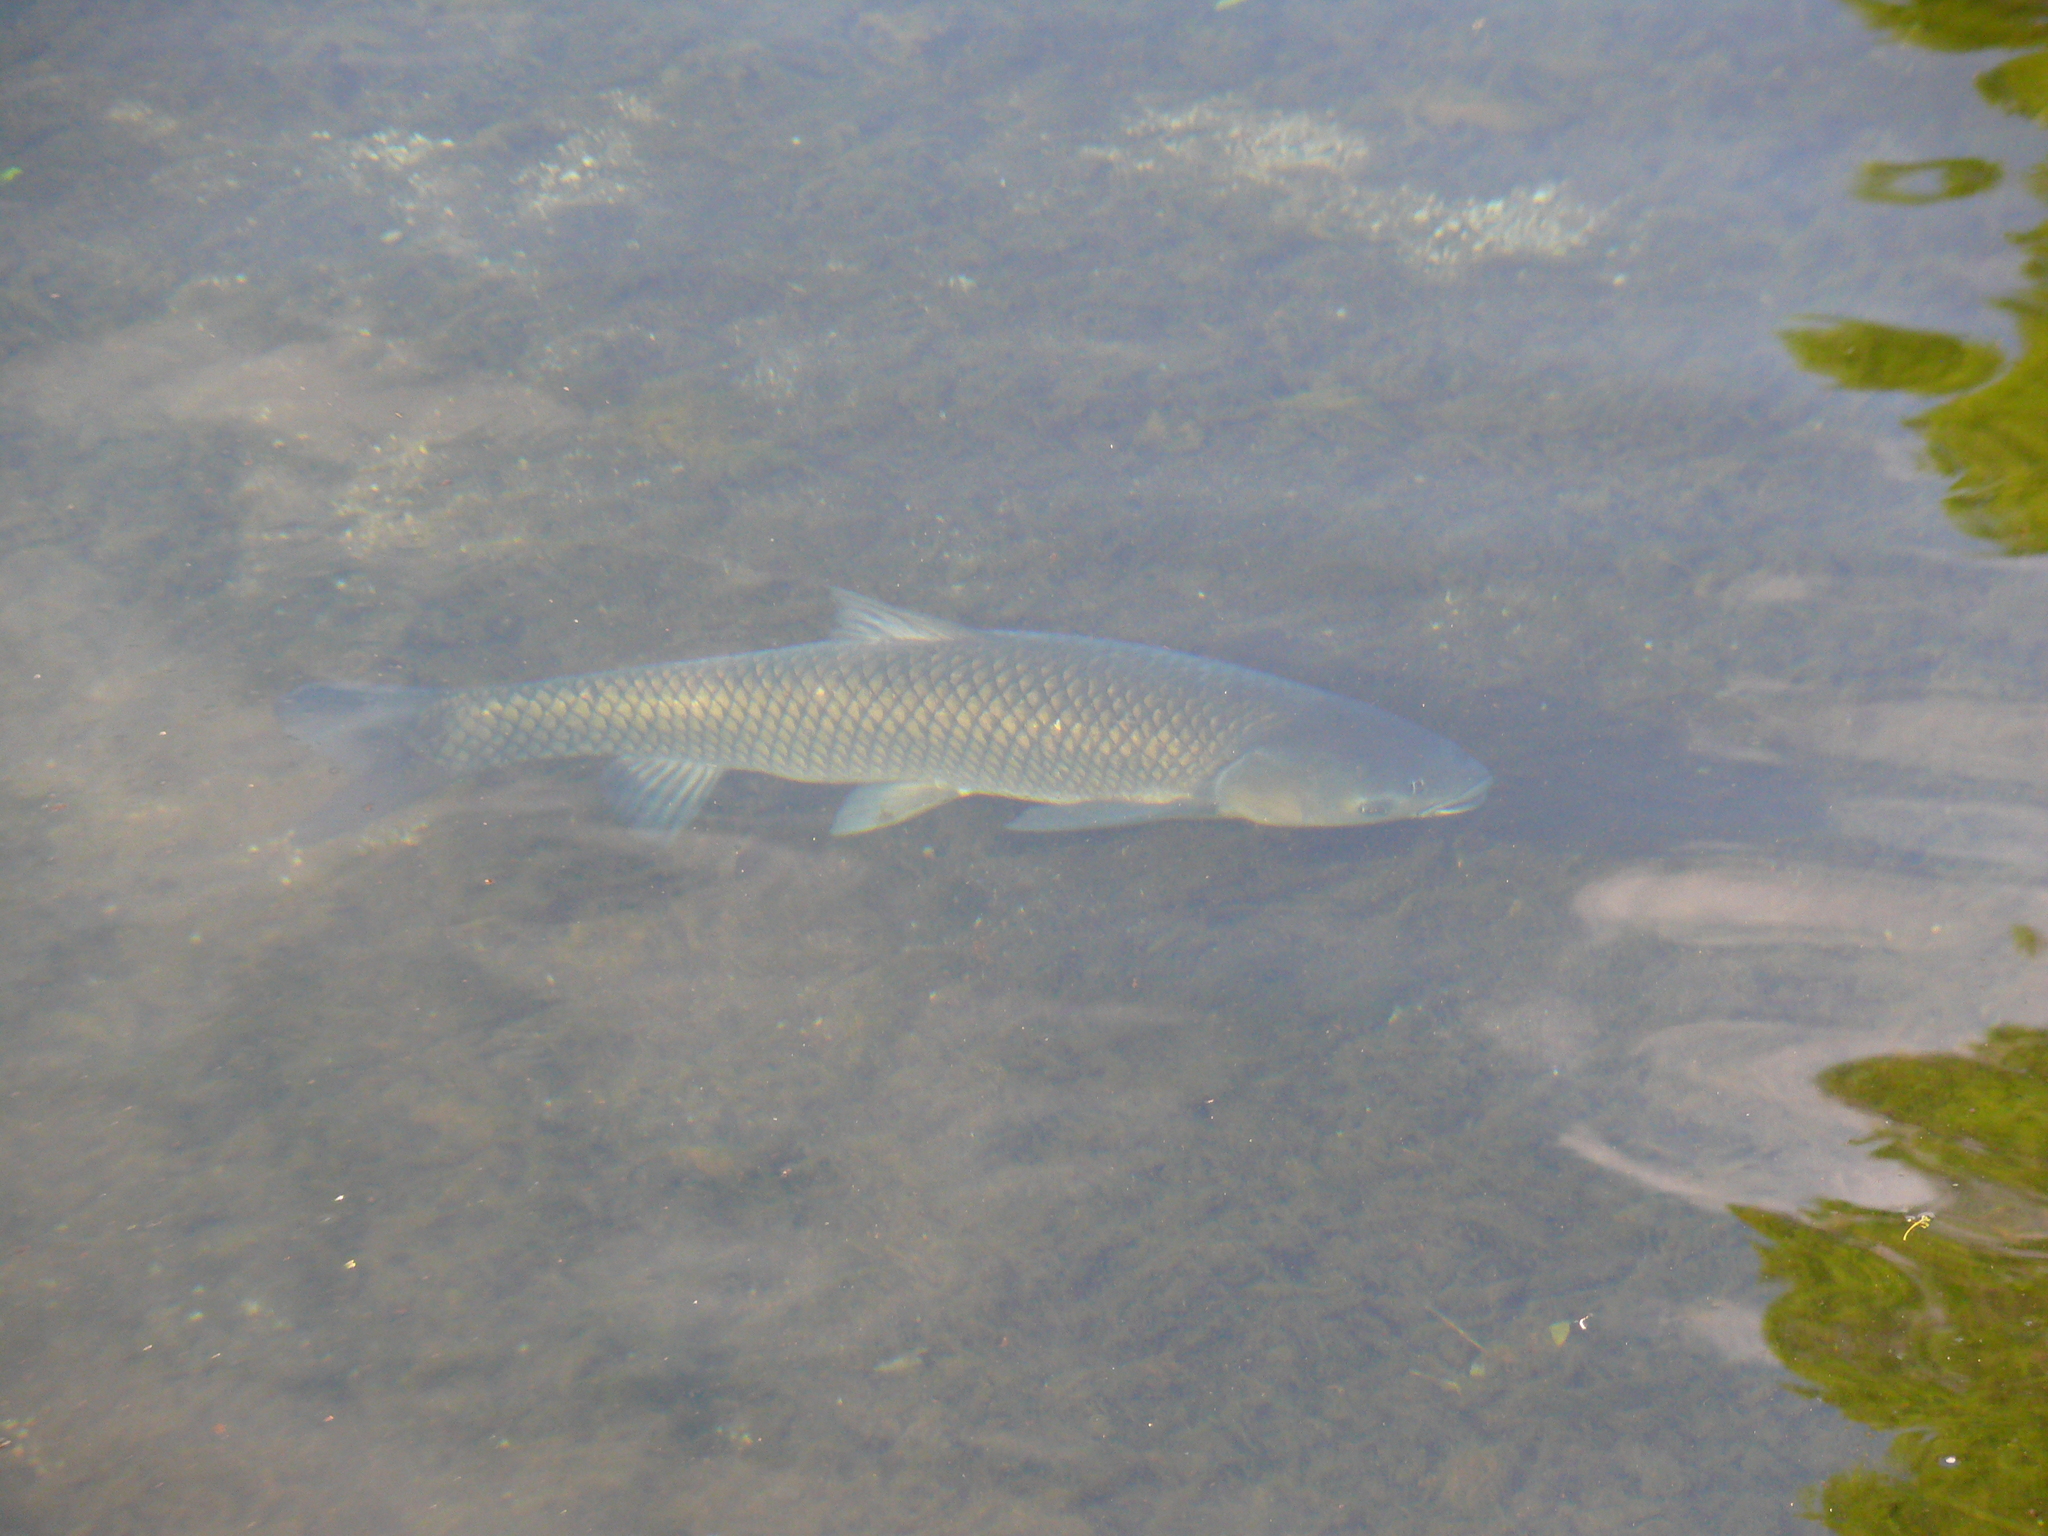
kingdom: Animalia
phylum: Chordata
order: Cypriniformes
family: Cyprinidae
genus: Ctenopharyngodon
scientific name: Ctenopharyngodon idella
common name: Grass carp
